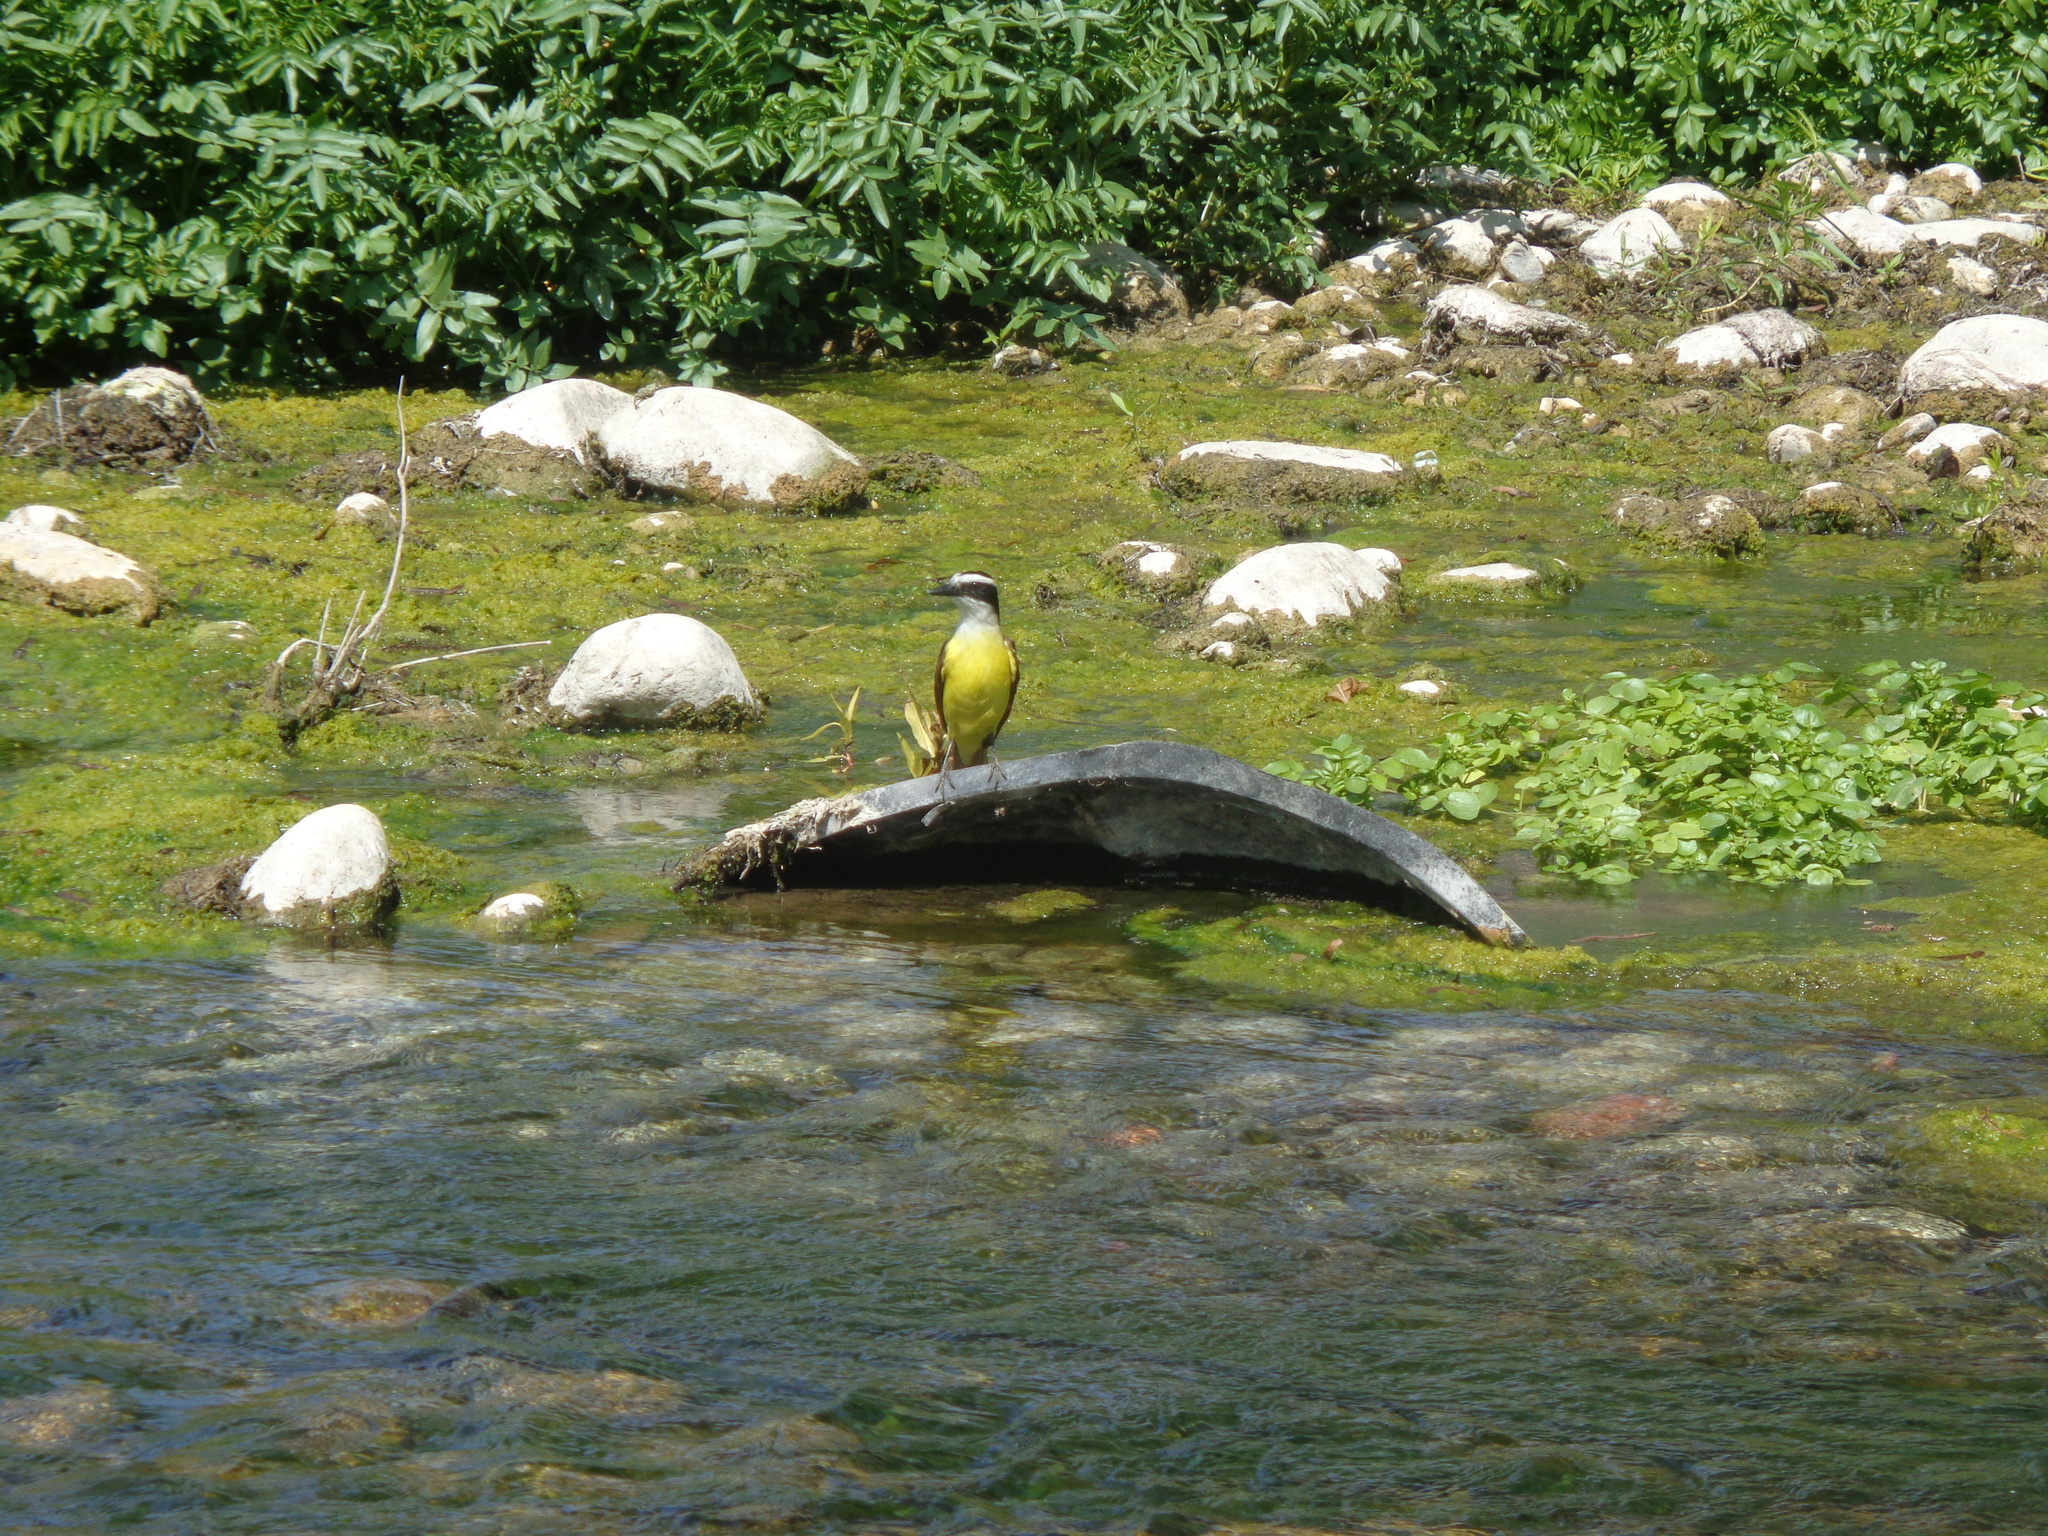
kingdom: Animalia
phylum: Chordata
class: Aves
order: Passeriformes
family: Tyrannidae
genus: Pitangus
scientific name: Pitangus sulphuratus
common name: Great kiskadee
